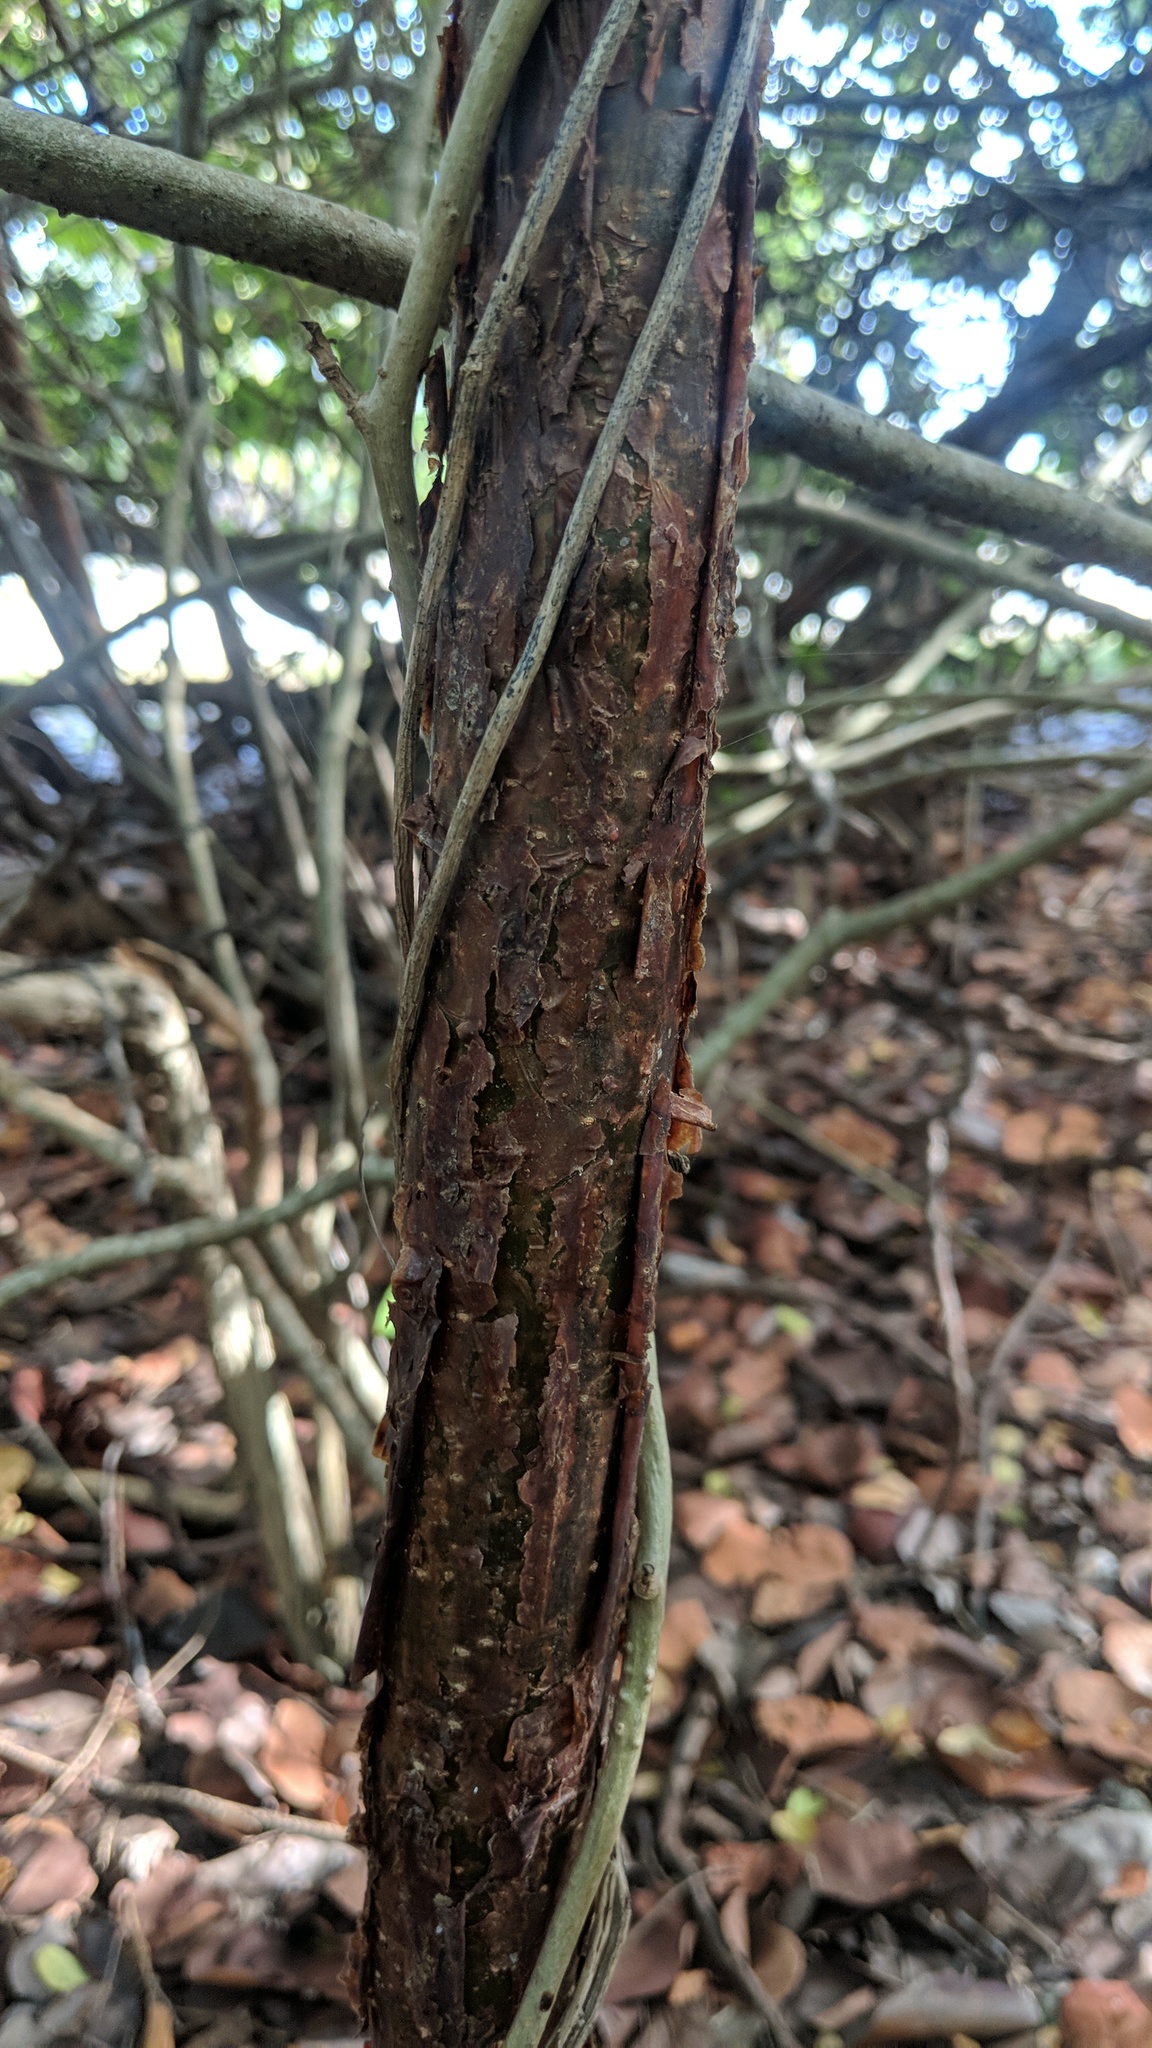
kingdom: Plantae
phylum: Tracheophyta
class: Magnoliopsida
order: Sapindales
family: Burseraceae
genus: Bursera
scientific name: Bursera simaruba
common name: Turpentine tree
